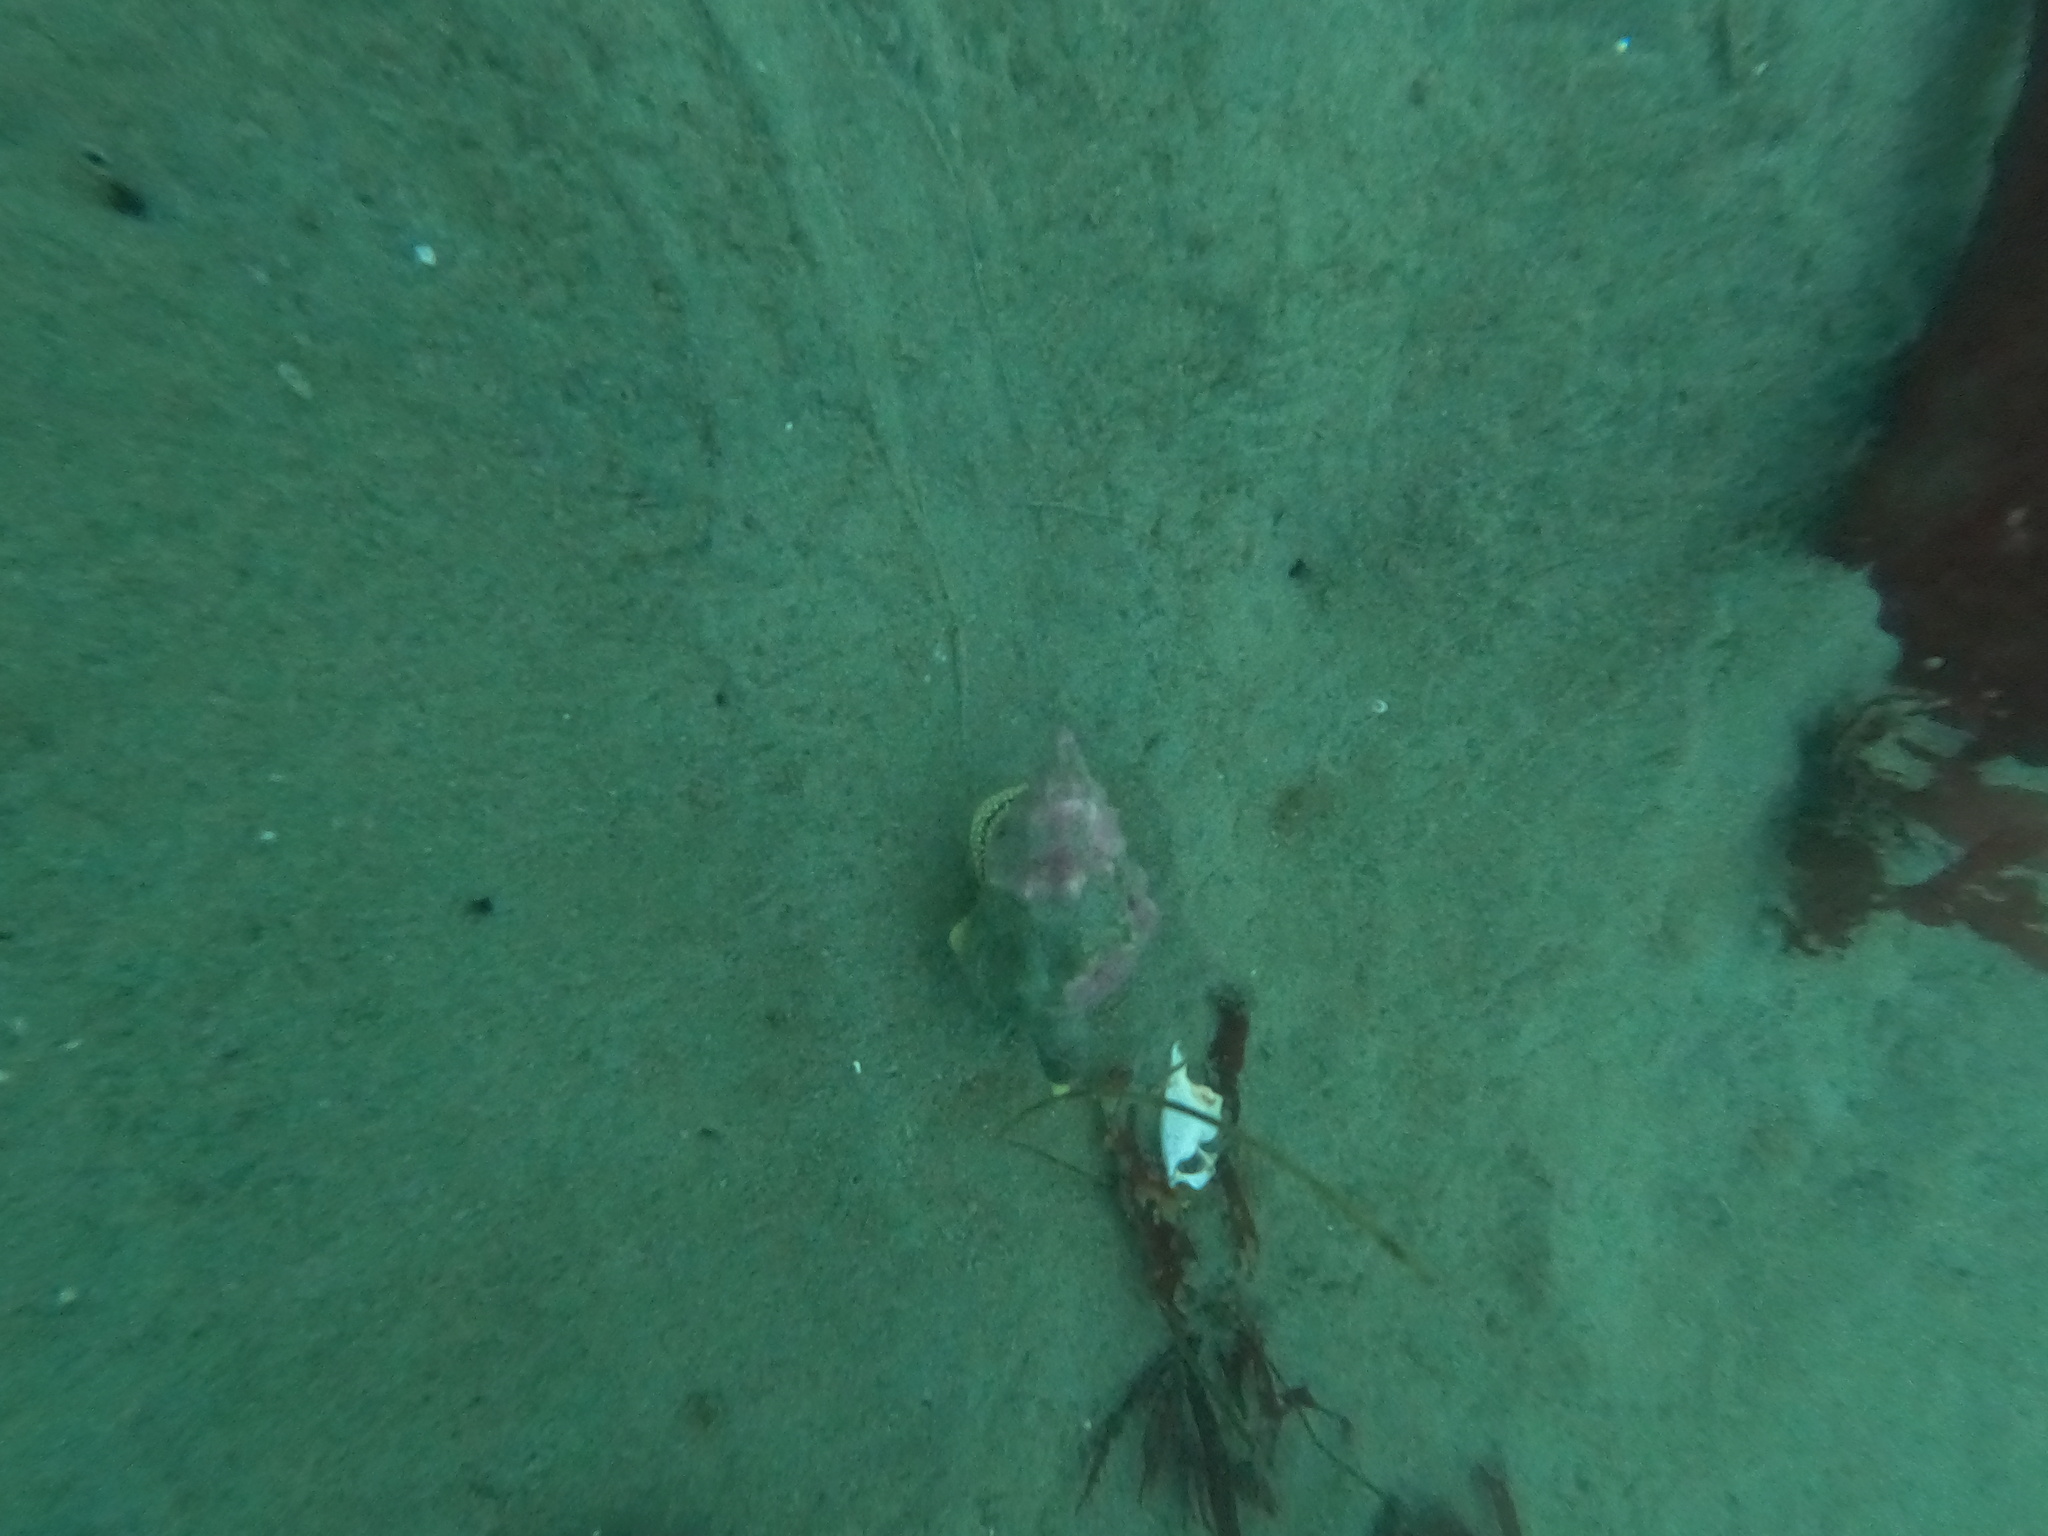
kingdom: Animalia
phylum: Mollusca
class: Gastropoda
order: Neogastropoda
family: Austrosiphonidae
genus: Kelletia
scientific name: Kelletia kelletii
